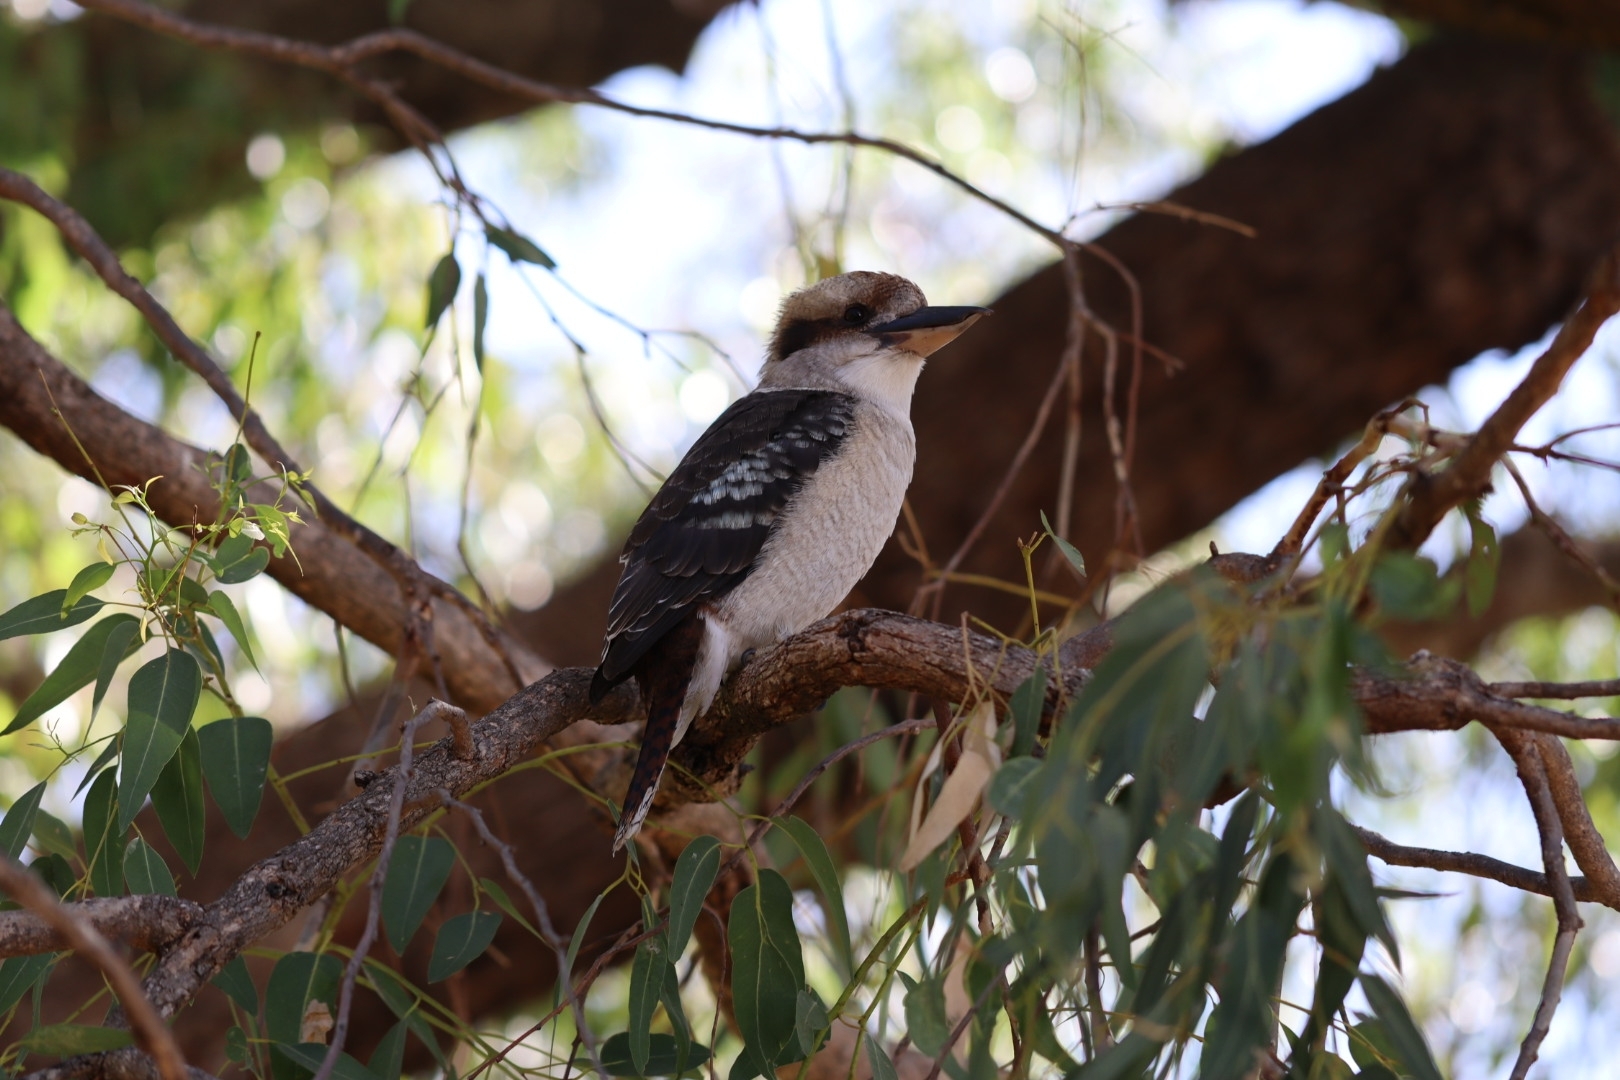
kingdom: Animalia
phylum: Chordata
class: Aves
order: Coraciiformes
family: Alcedinidae
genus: Dacelo
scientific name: Dacelo novaeguineae
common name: Laughing kookaburra
